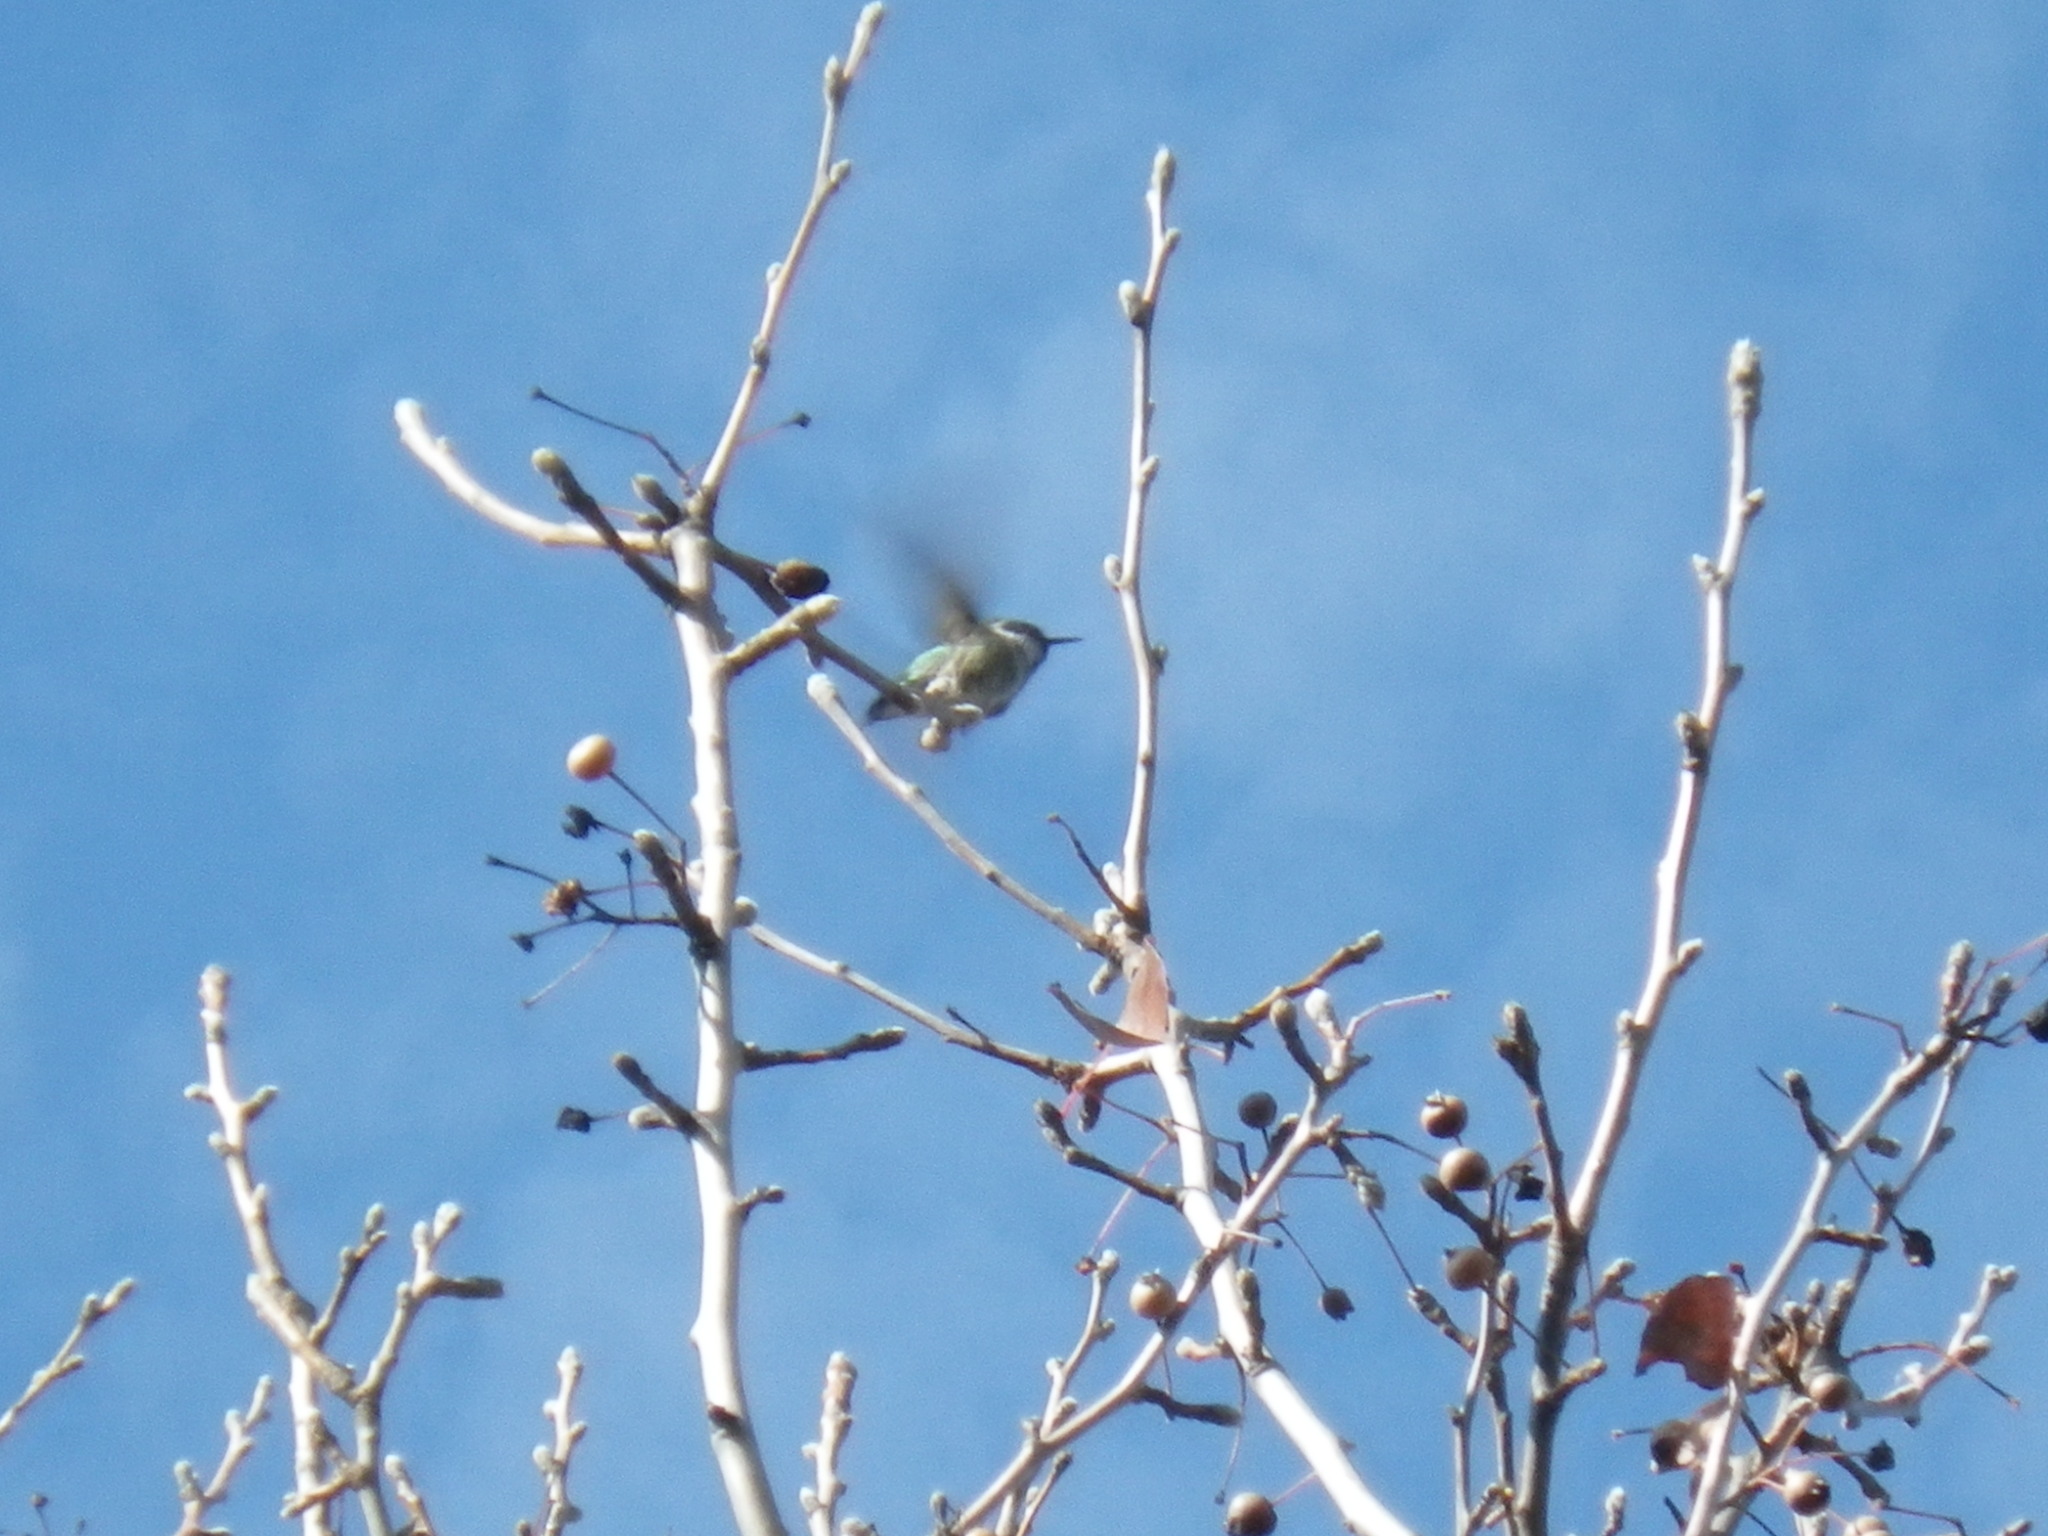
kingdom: Animalia
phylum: Chordata
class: Aves
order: Apodiformes
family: Trochilidae
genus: Calypte
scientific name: Calypte anna
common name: Anna's hummingbird
